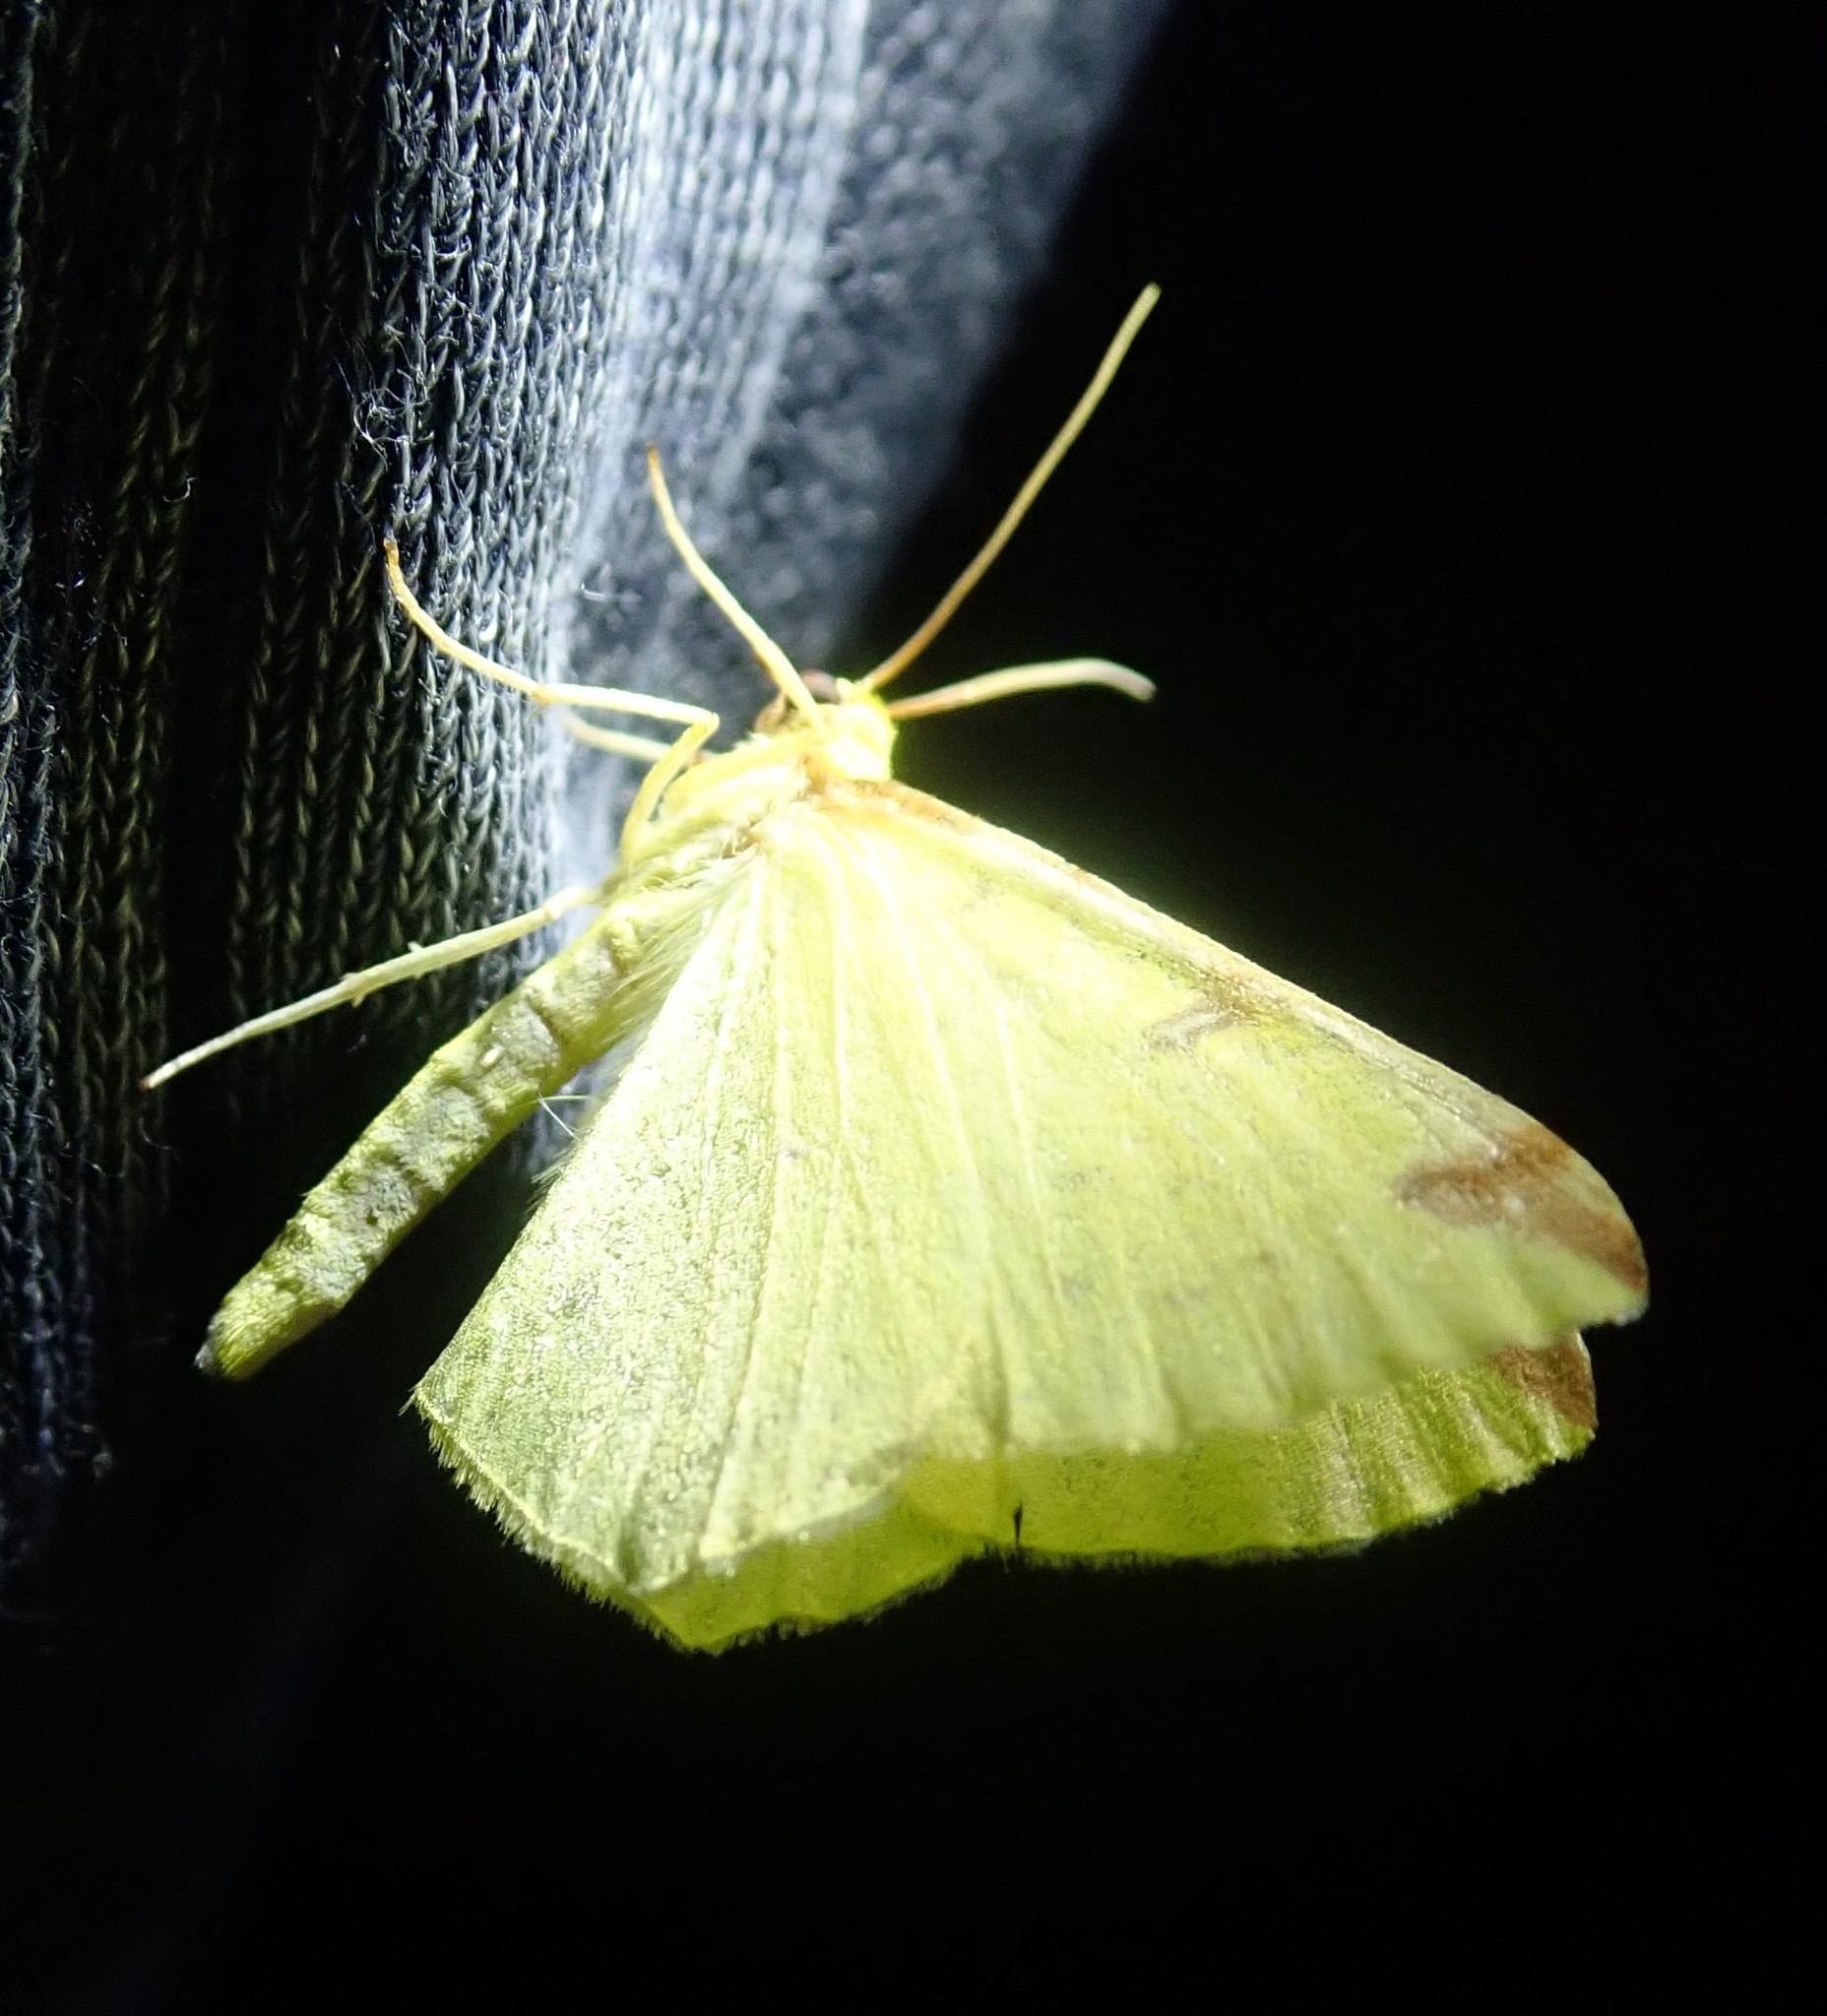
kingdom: Animalia
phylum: Arthropoda
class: Insecta
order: Lepidoptera
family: Geometridae
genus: Opisthograptis
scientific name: Opisthograptis luteolata
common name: Brimstone moth
